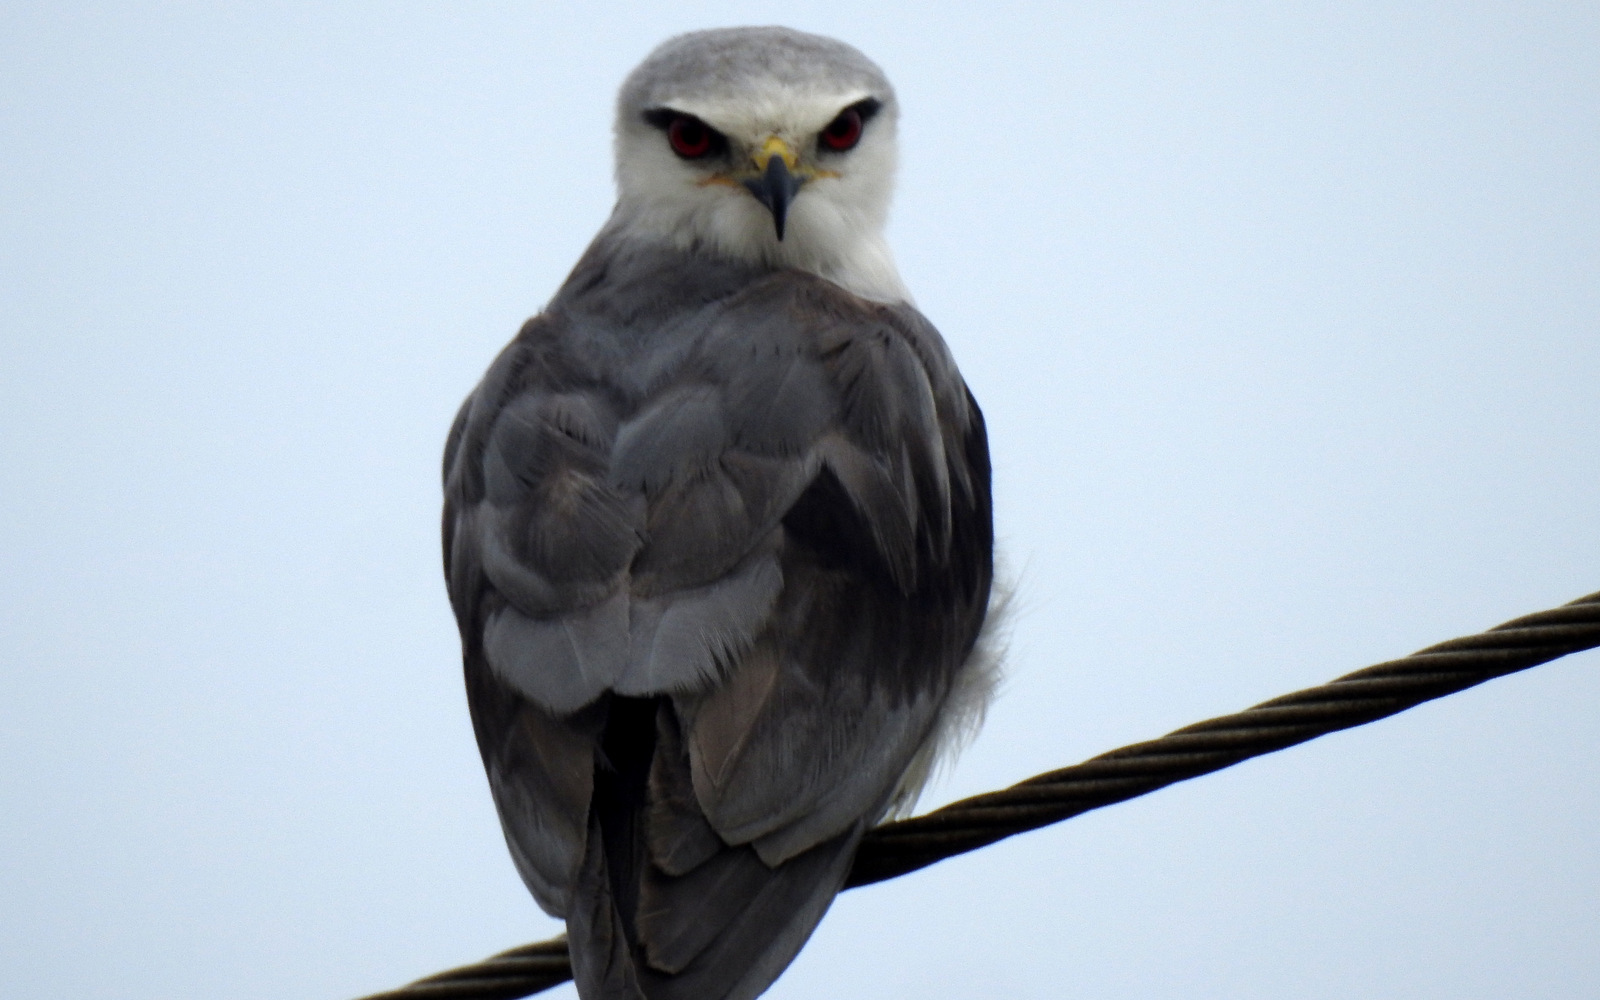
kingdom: Animalia
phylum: Chordata
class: Aves
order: Accipitriformes
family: Accipitridae
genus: Elanus
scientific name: Elanus caeruleus
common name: Black-winged kite
